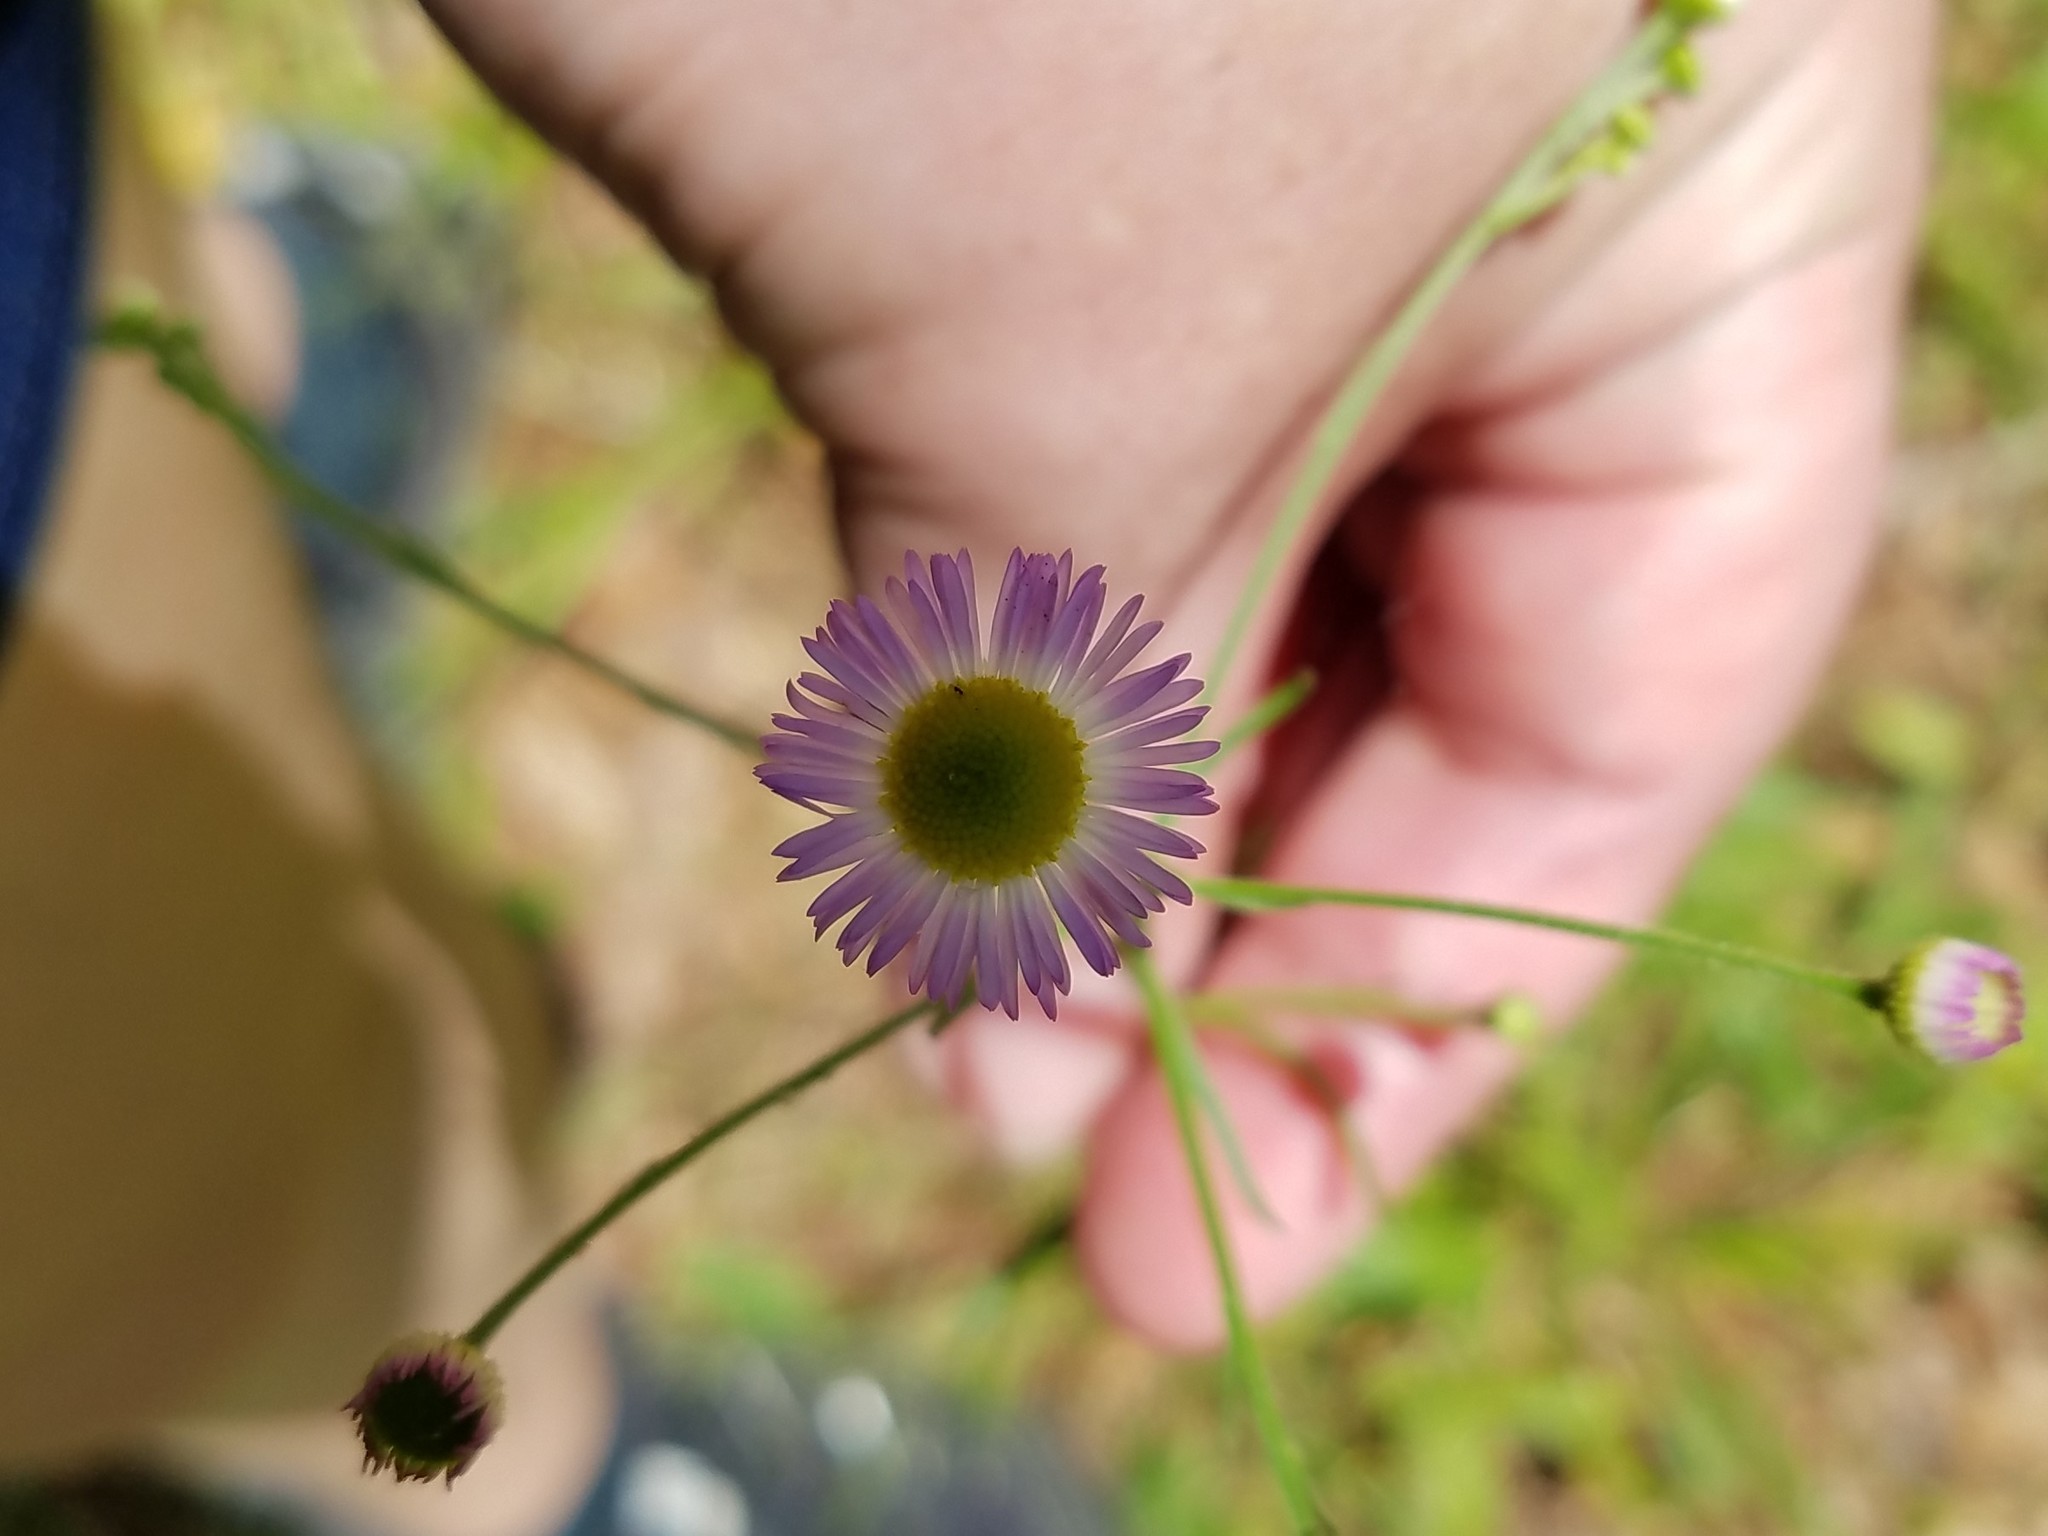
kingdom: Plantae
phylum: Tracheophyta
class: Magnoliopsida
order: Asterales
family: Asteraceae
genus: Erigeron
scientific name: Erigeron strigosus
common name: Common eastern fleabane
